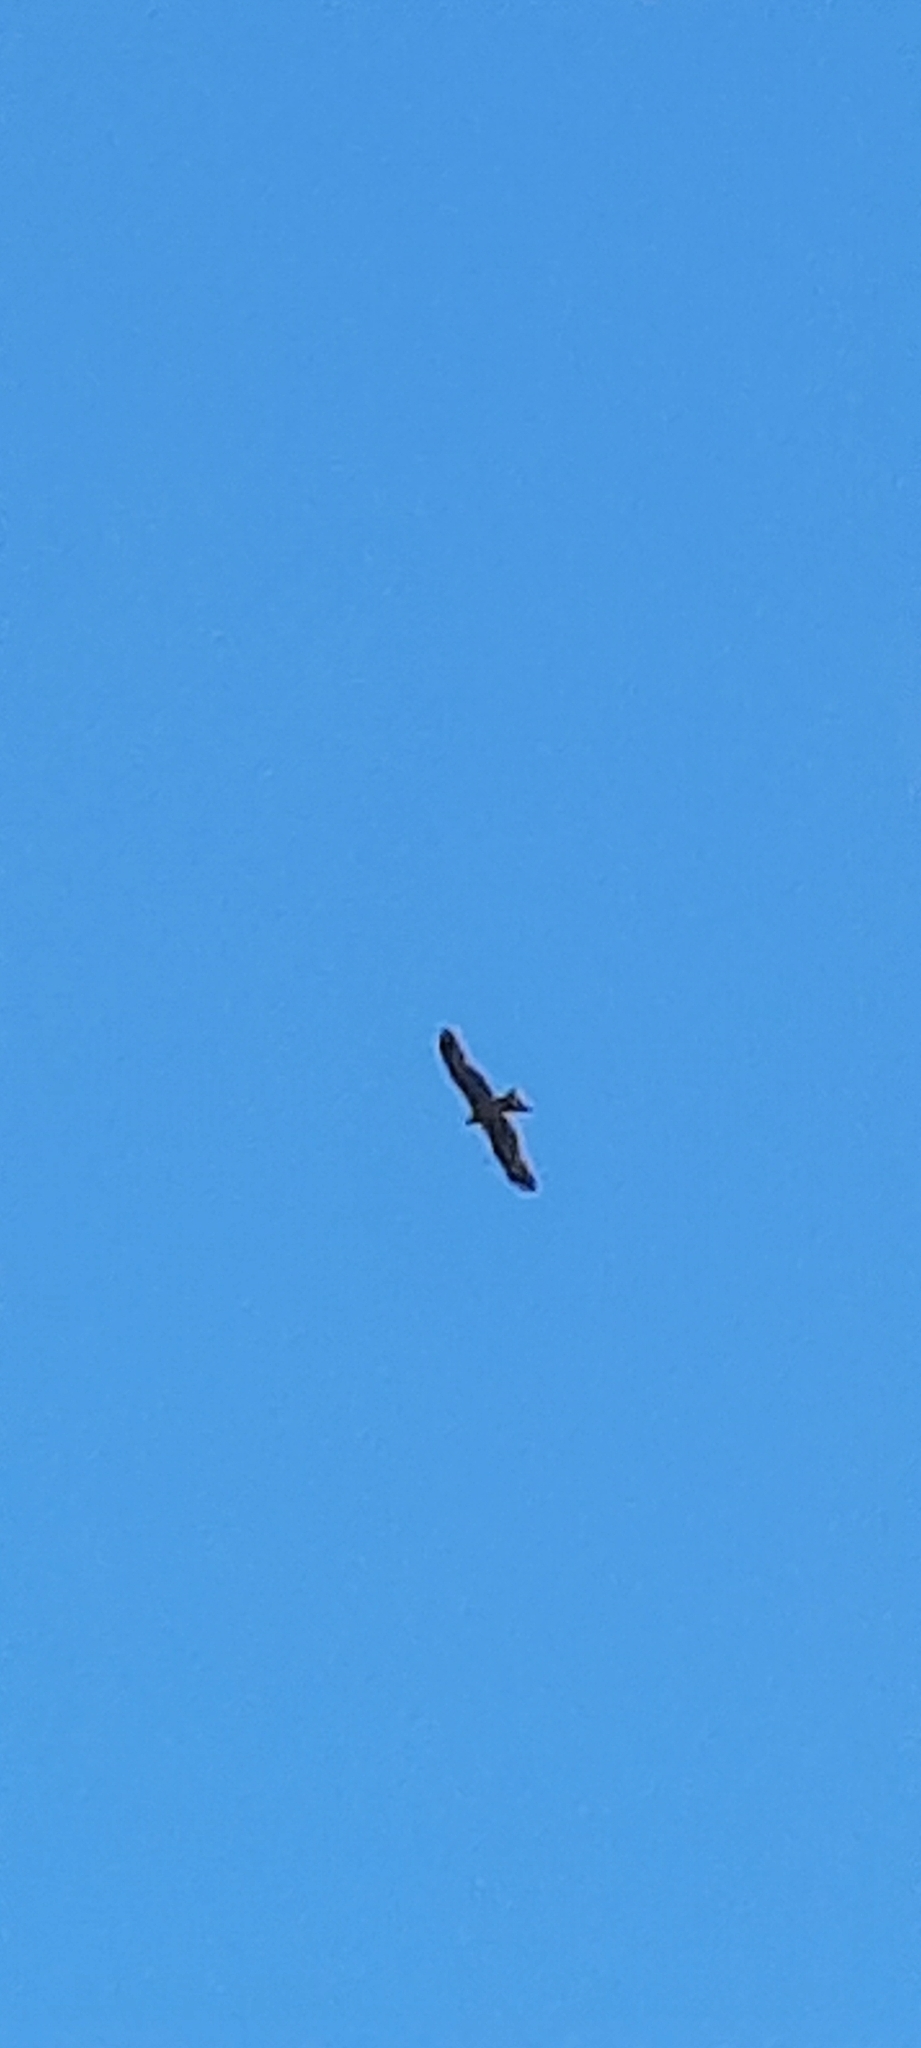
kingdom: Animalia
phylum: Chordata
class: Aves
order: Accipitriformes
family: Accipitridae
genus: Milvus
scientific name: Milvus migrans
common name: Black kite
